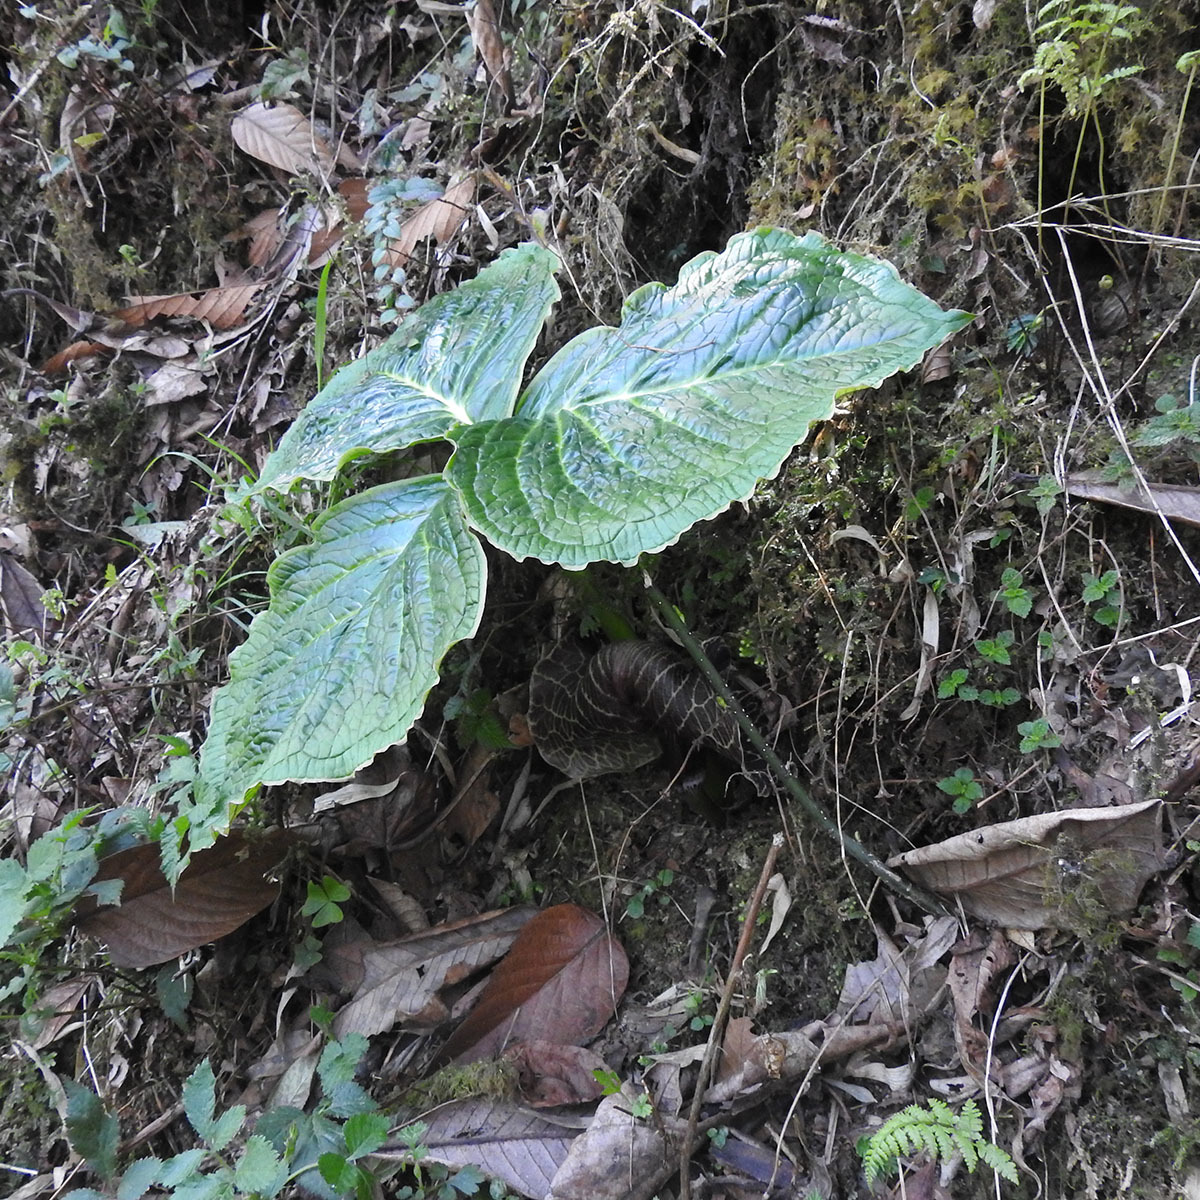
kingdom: Plantae
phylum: Tracheophyta
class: Liliopsida
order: Alismatales
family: Araceae
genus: Arisaema
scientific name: Arisaema griffithii
